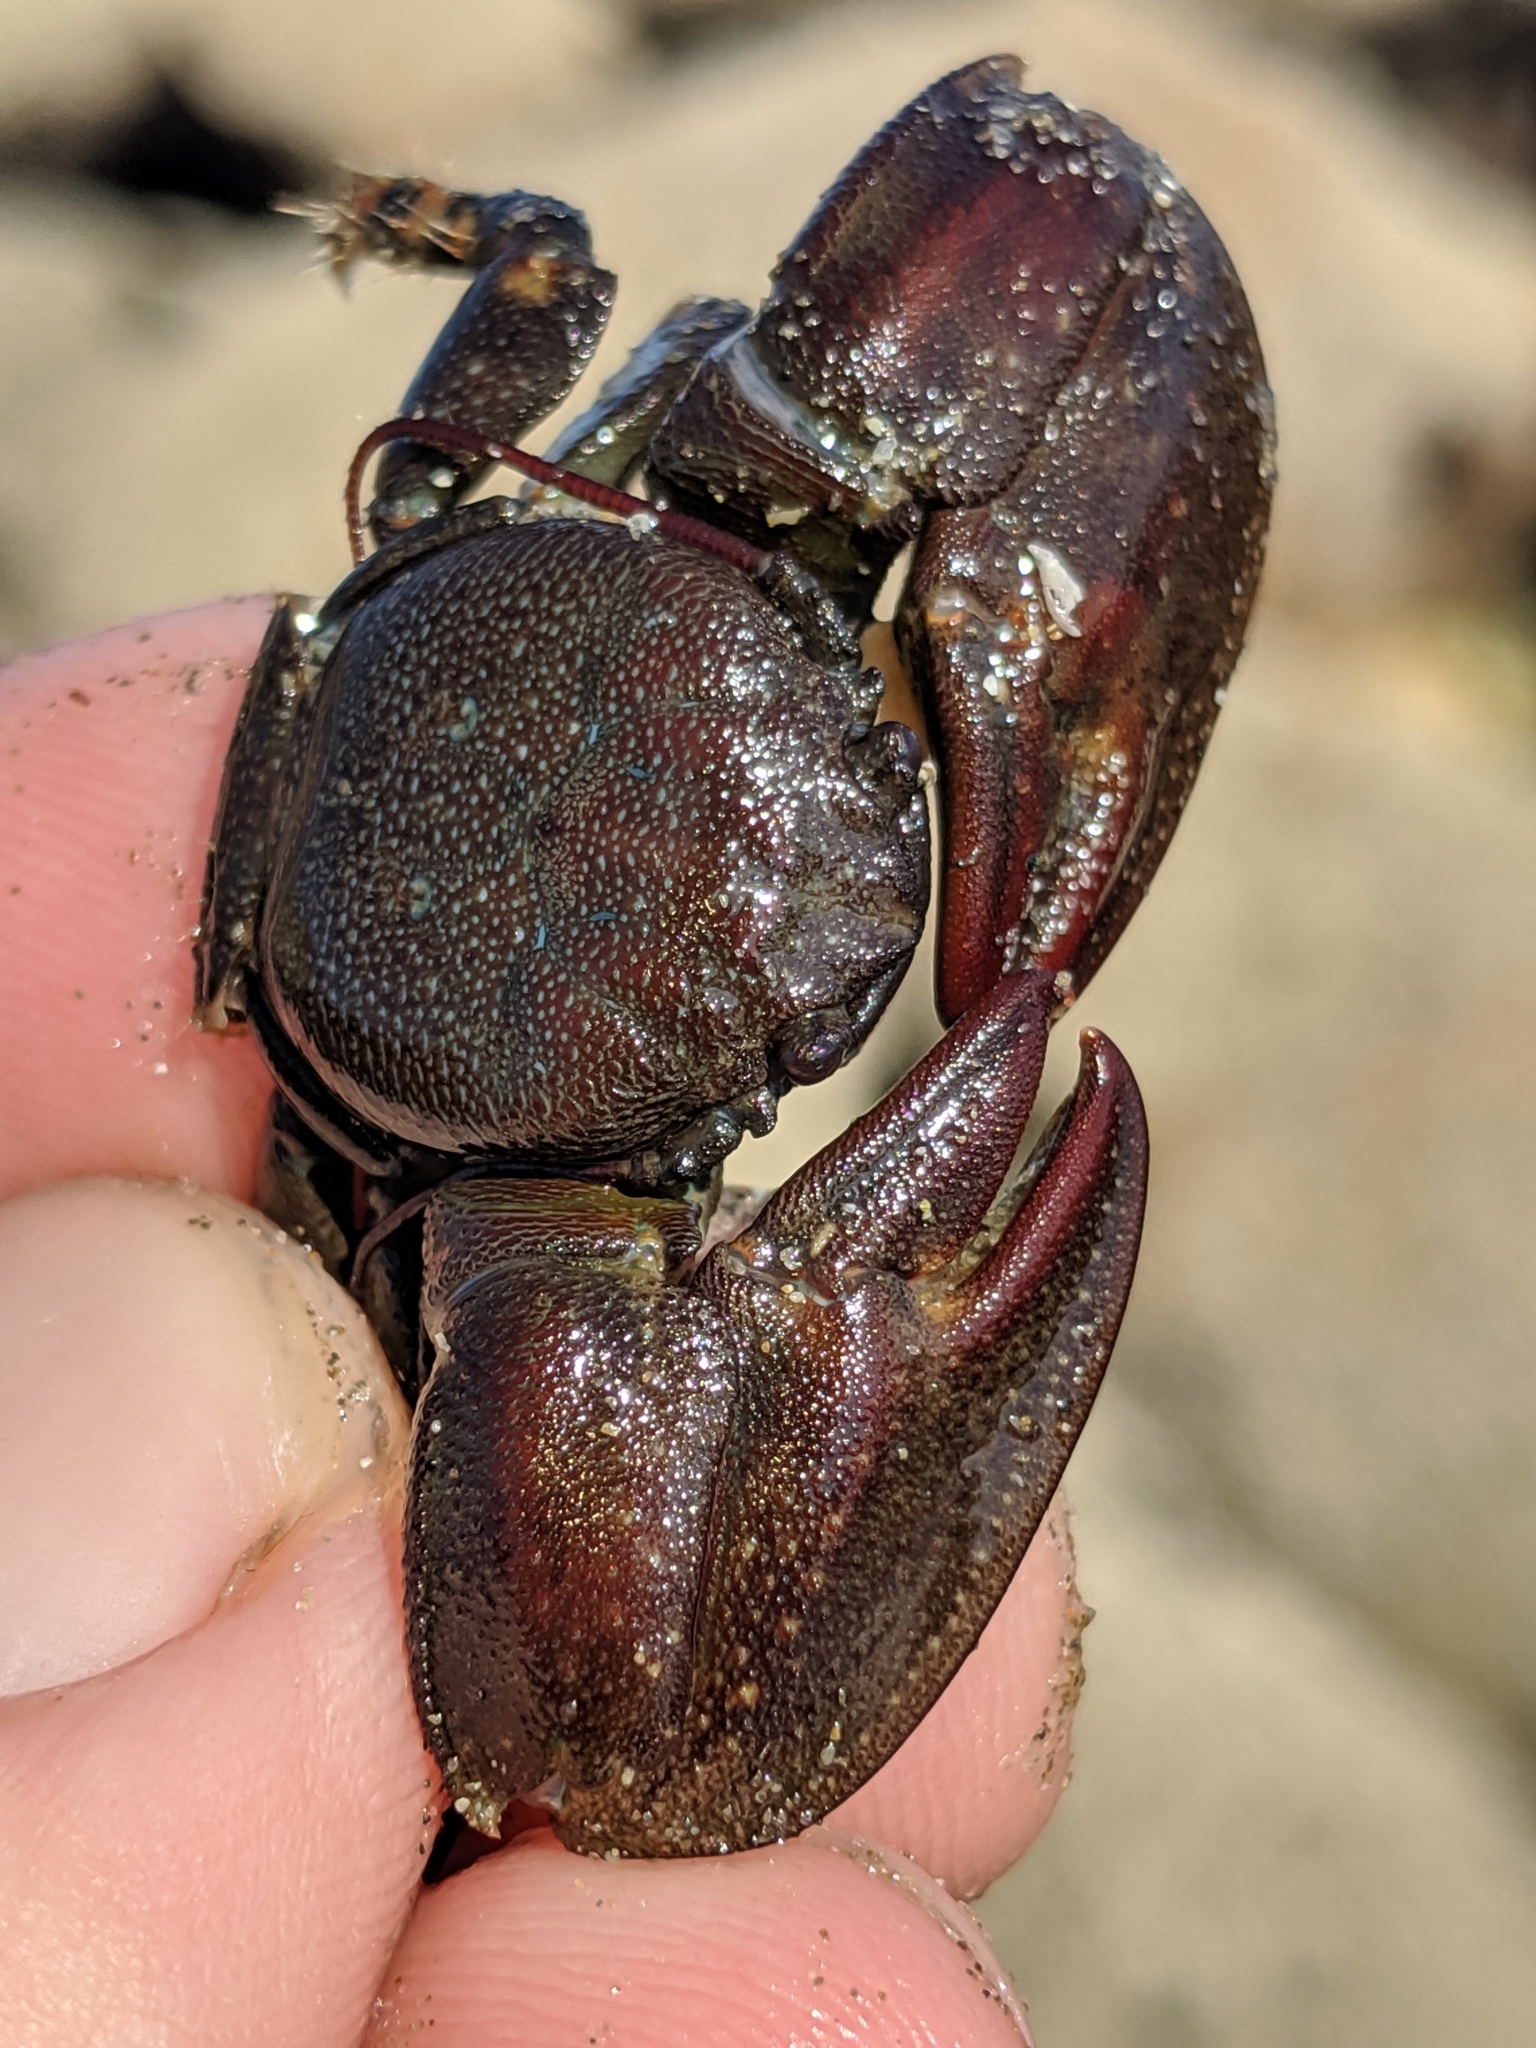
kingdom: Animalia
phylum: Arthropoda
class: Malacostraca
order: Decapoda
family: Porcellanidae
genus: Petrolisthes
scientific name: Petrolisthes cinctipes
